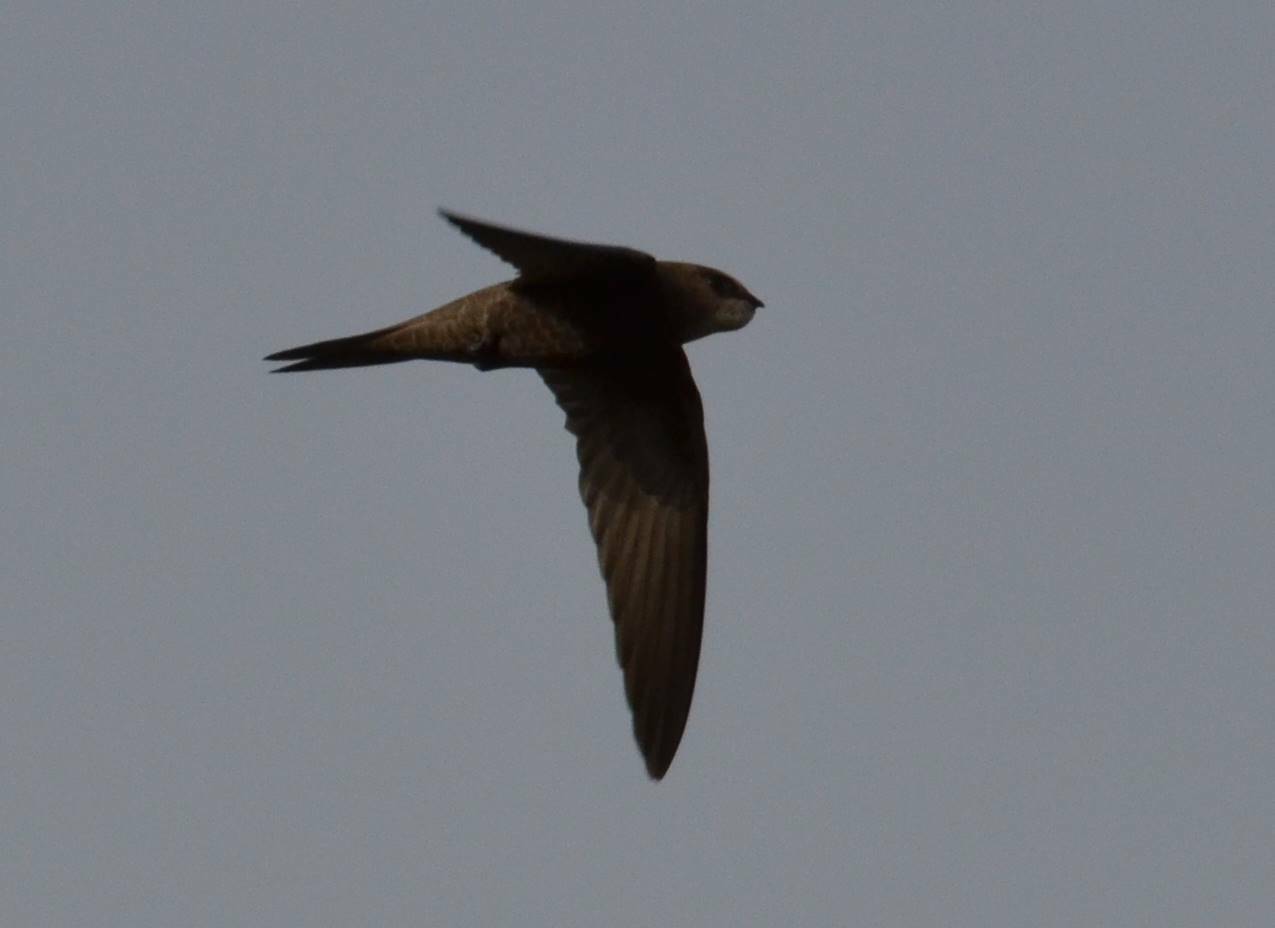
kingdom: Animalia
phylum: Chordata
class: Aves
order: Apodiformes
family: Apodidae
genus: Apus
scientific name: Apus pallidus
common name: Pallid swift
